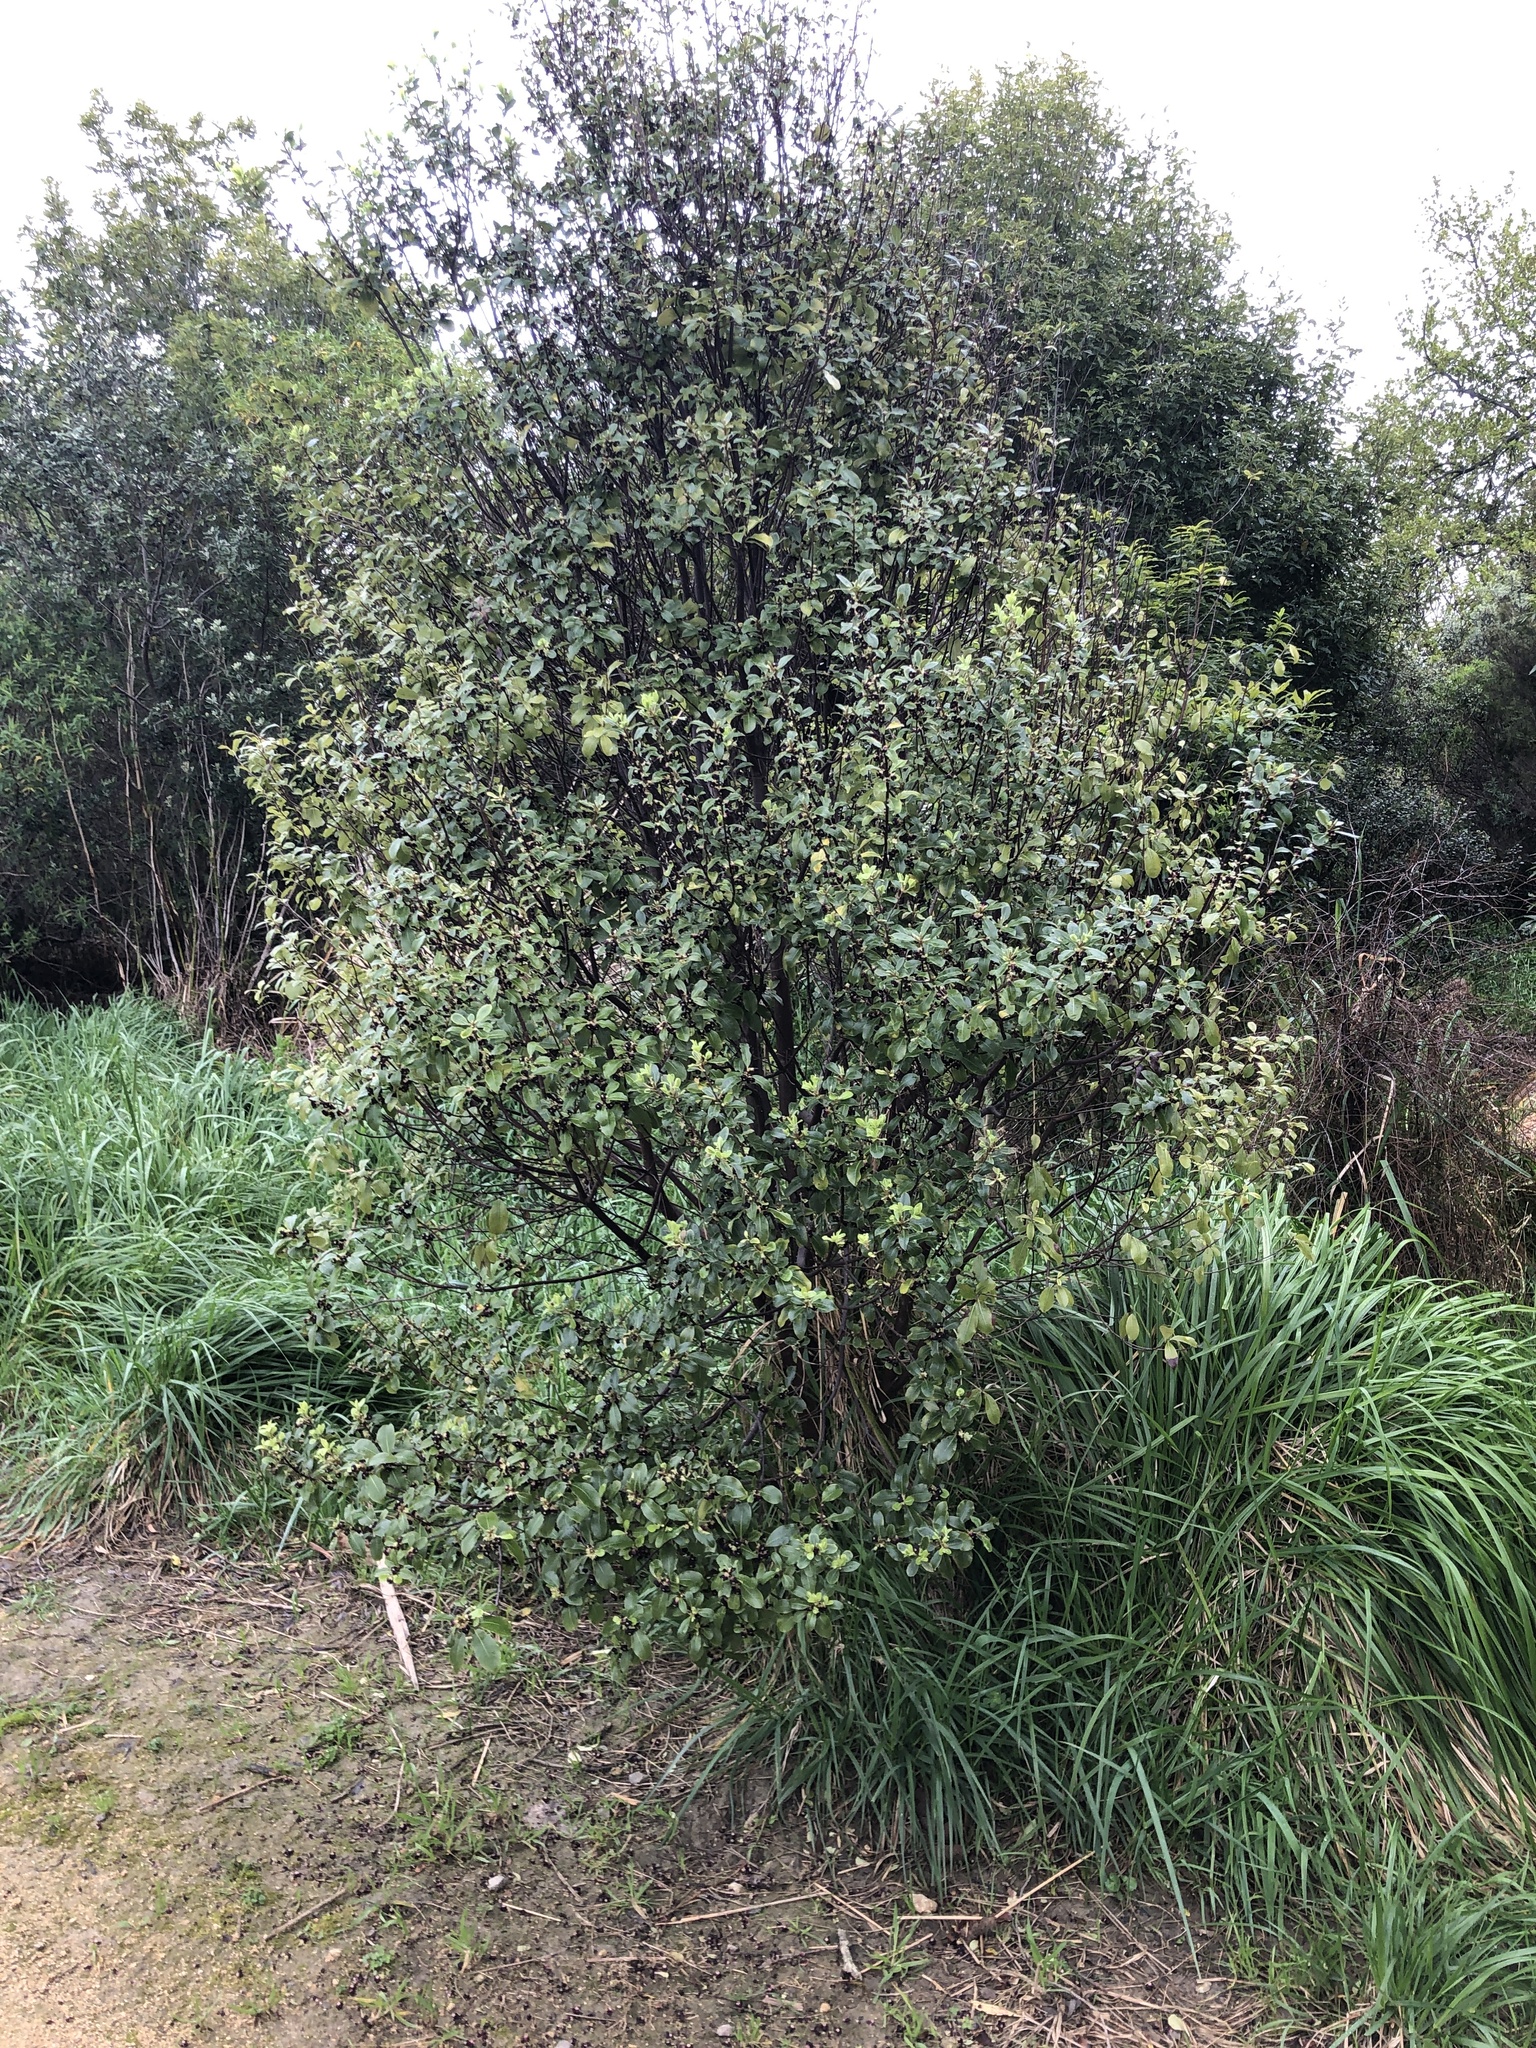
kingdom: Plantae
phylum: Tracheophyta
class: Magnoliopsida
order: Apiales
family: Pittosporaceae
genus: Pittosporum
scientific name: Pittosporum tenuifolium
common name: Kohuhu
